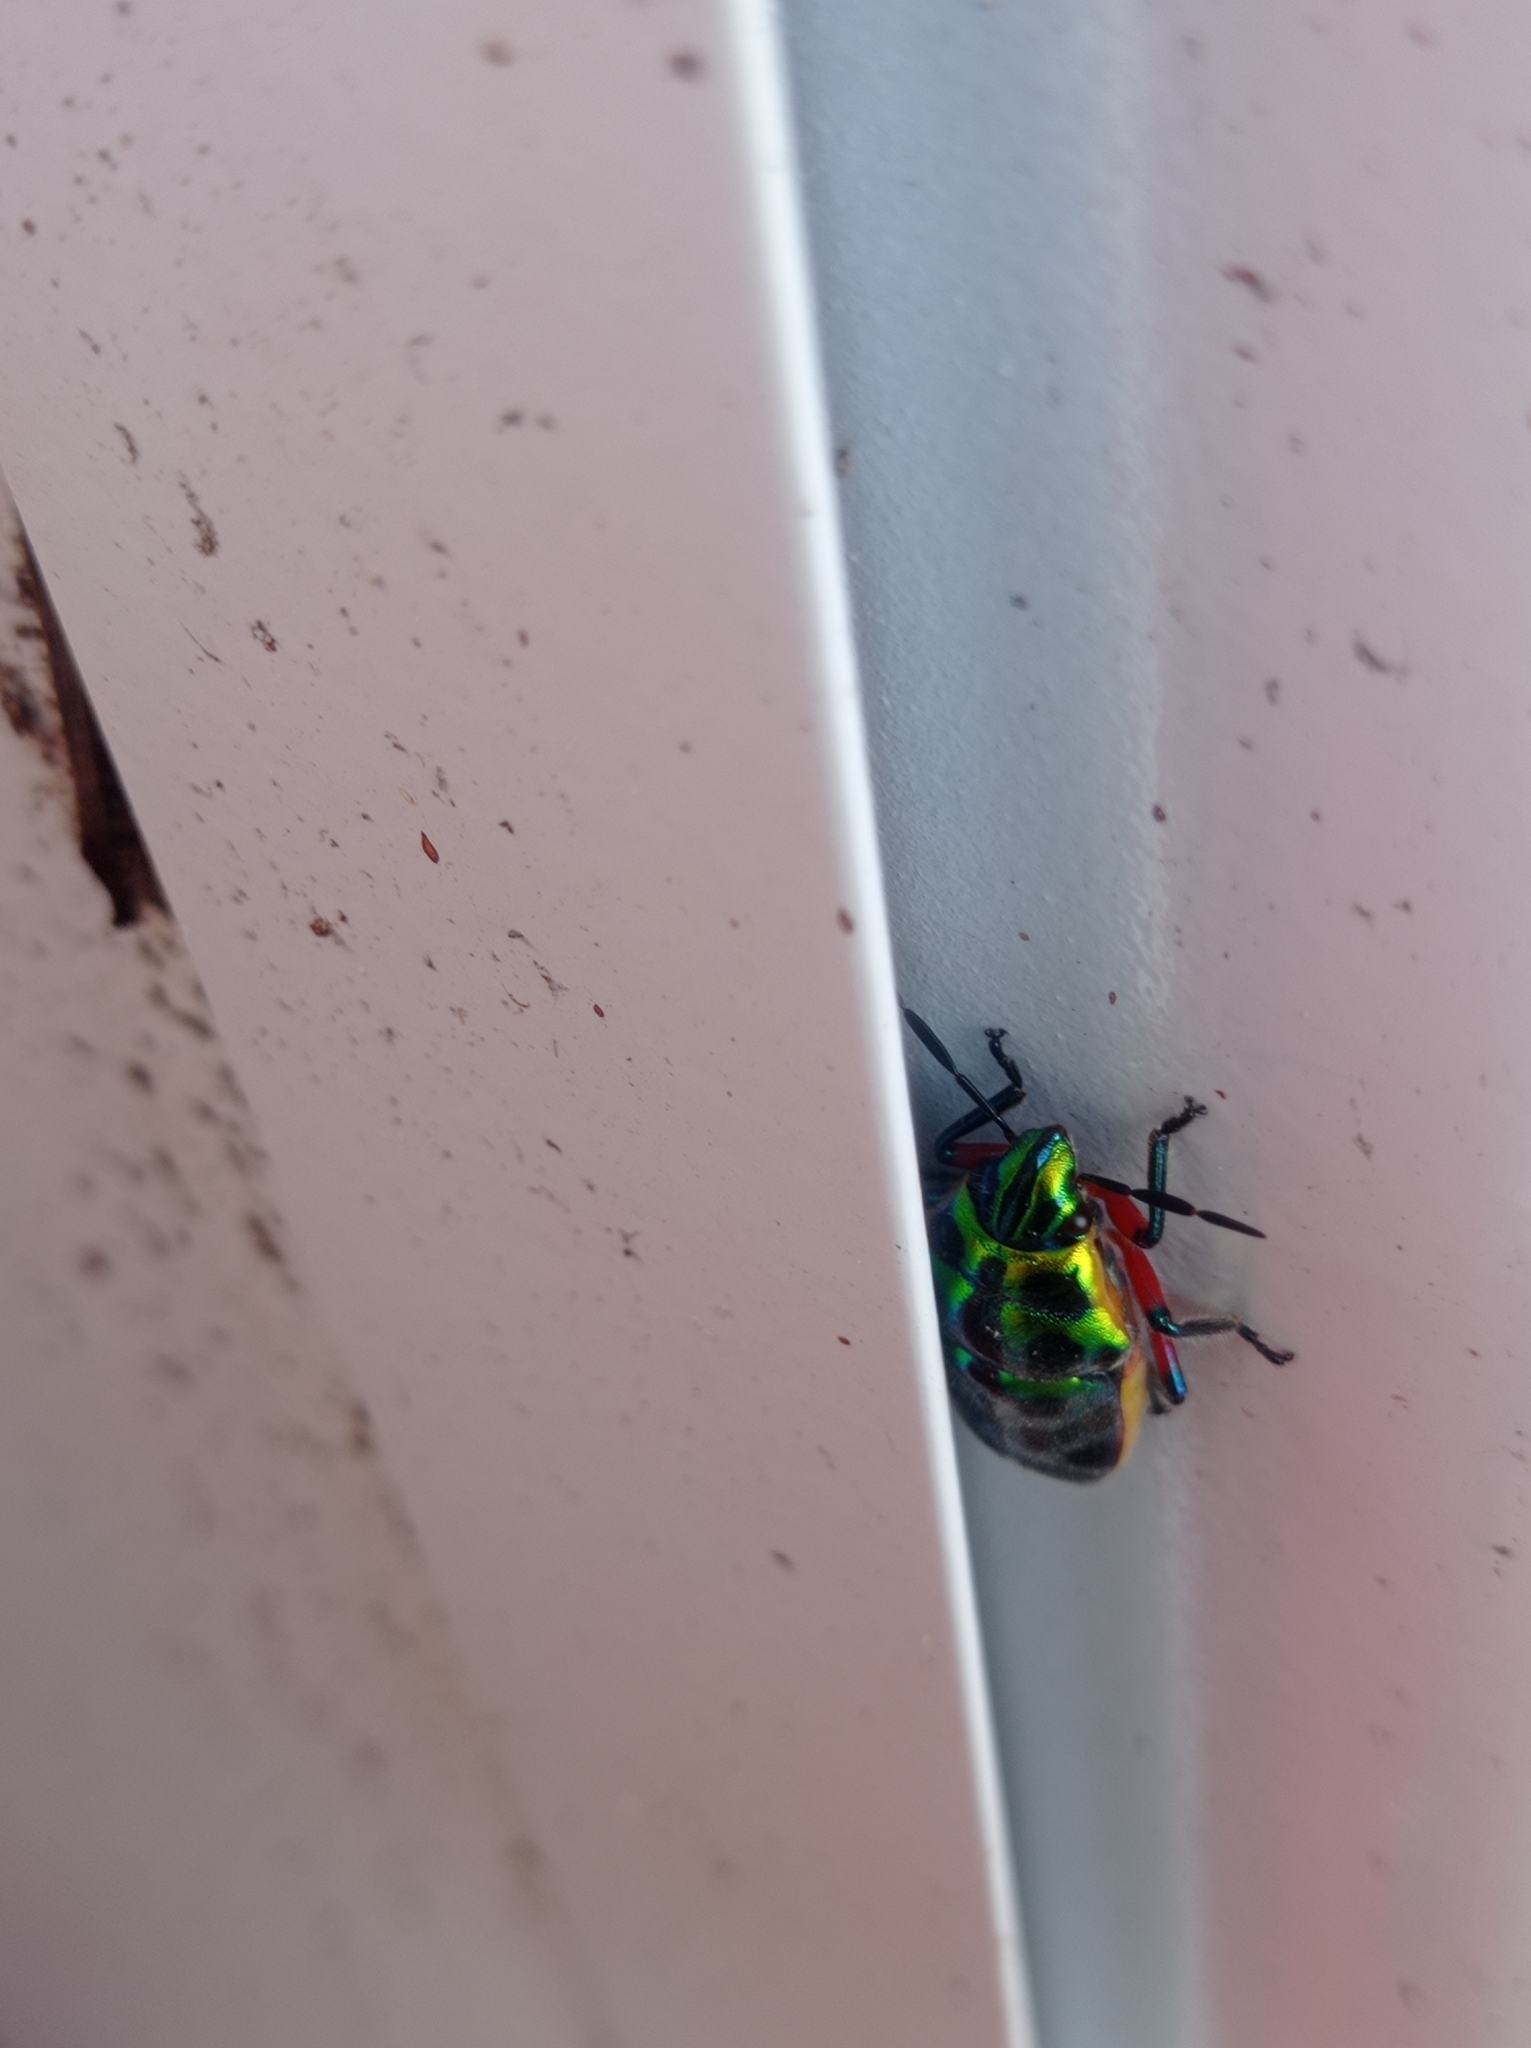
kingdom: Animalia
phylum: Arthropoda
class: Insecta
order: Hemiptera
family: Scutelleridae
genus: Scutellera
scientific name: Scutellera nepalensis
